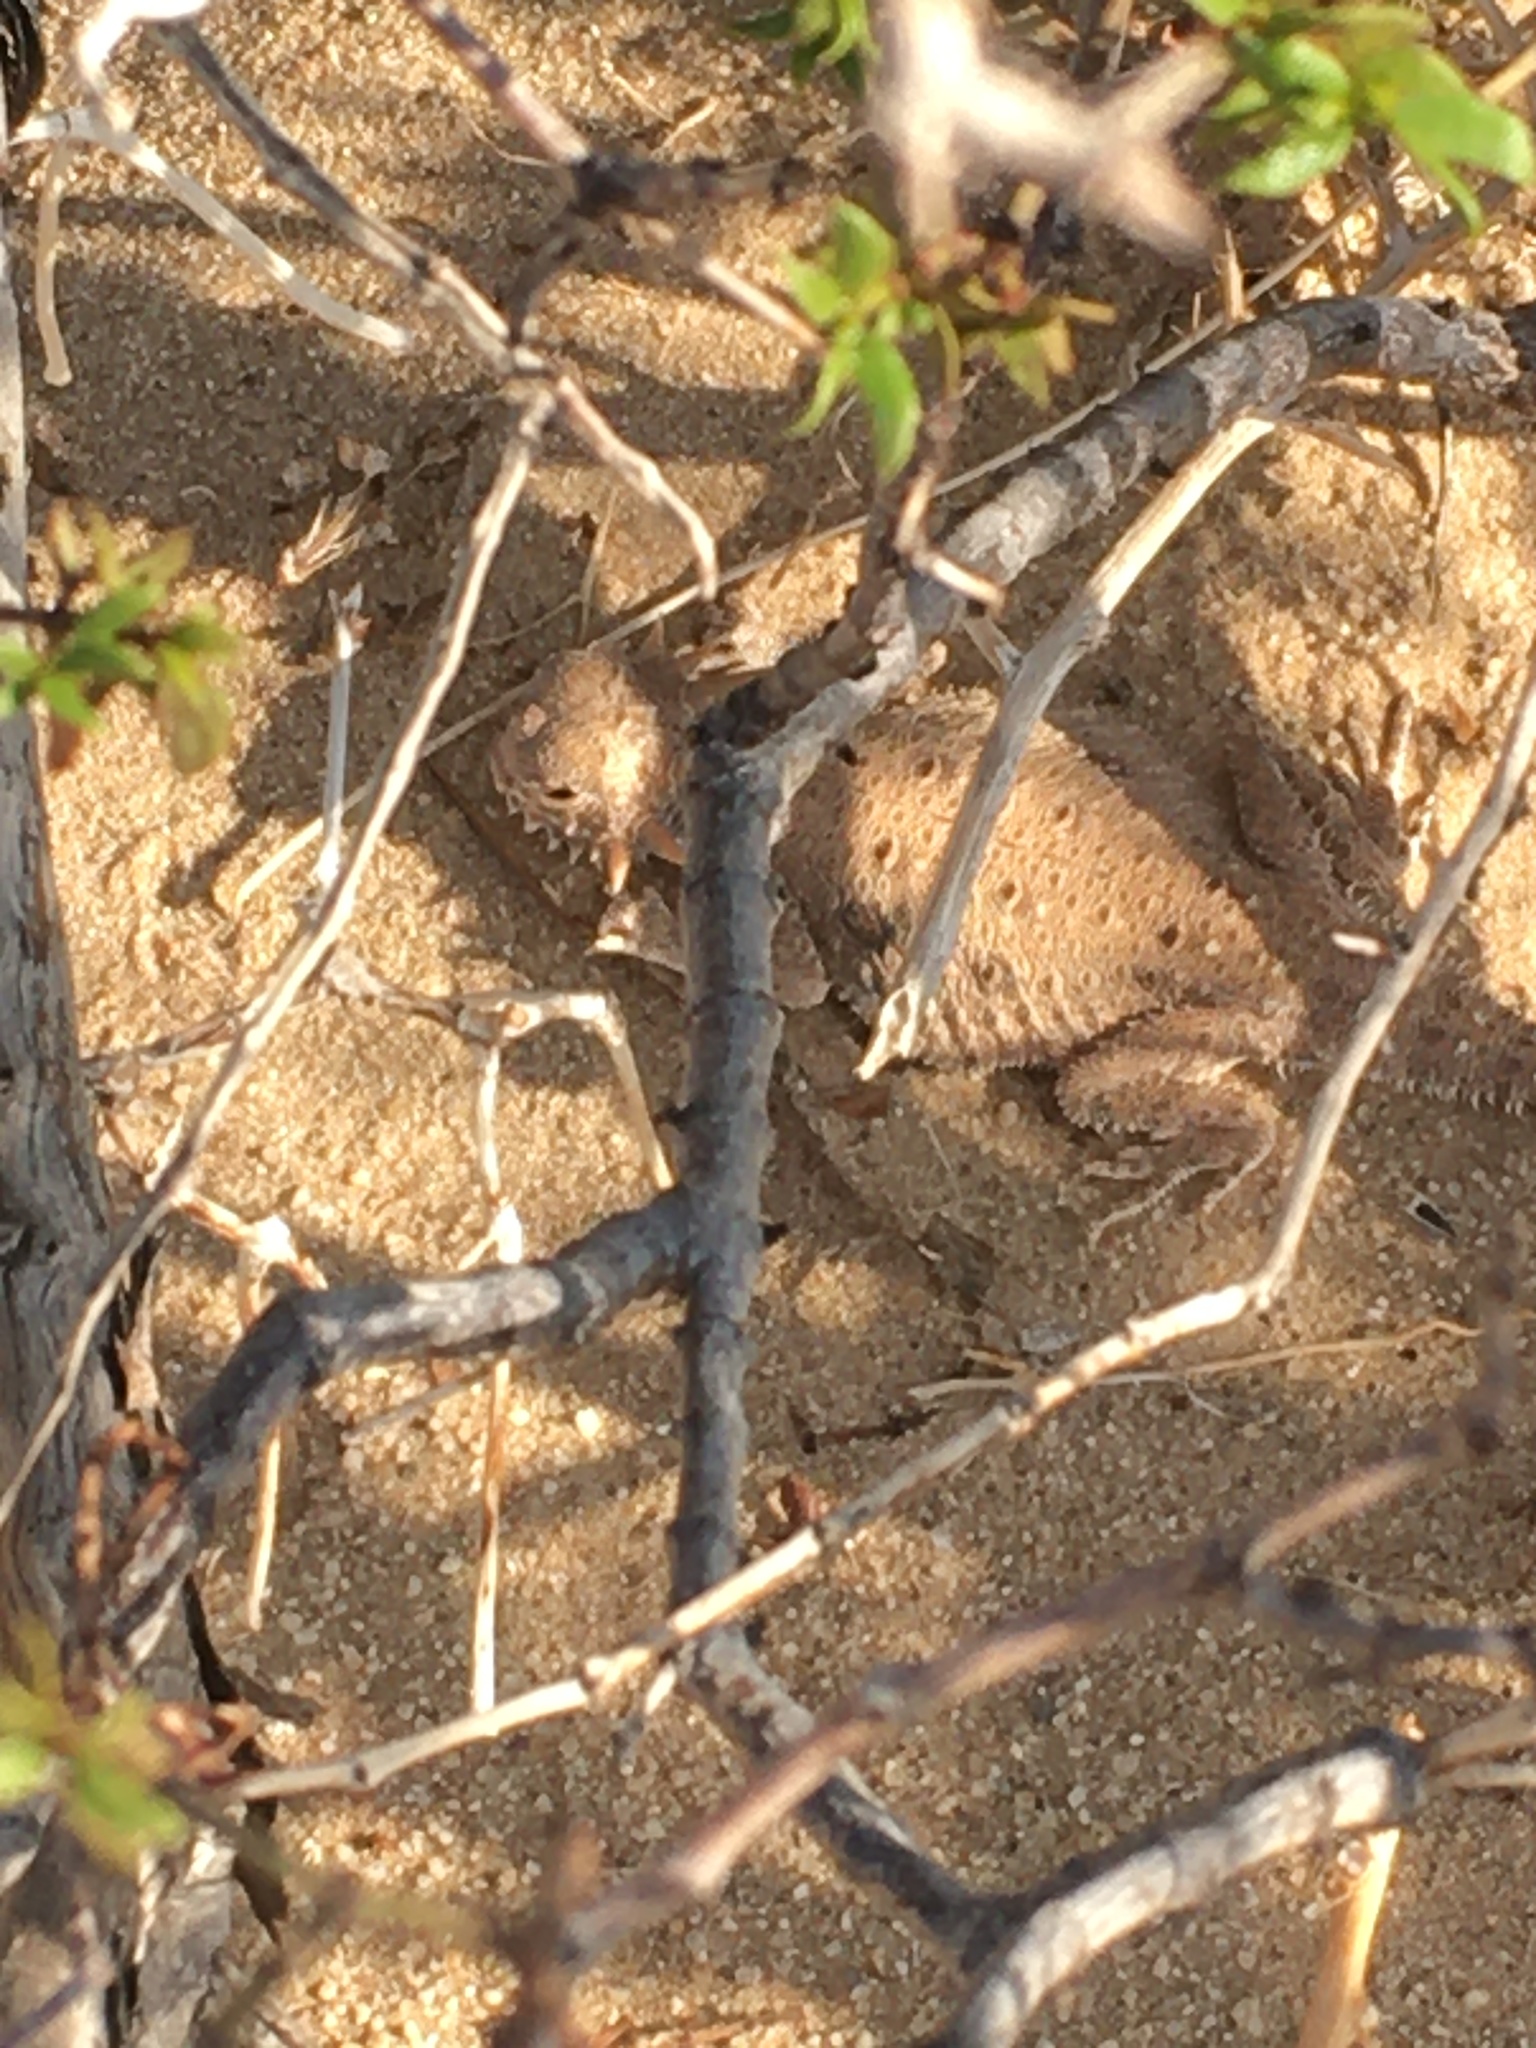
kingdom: Animalia
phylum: Chordata
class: Squamata
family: Phrynosomatidae
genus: Phrynosoma
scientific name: Phrynosoma mcallii
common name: Flat-tailed horned lizard
